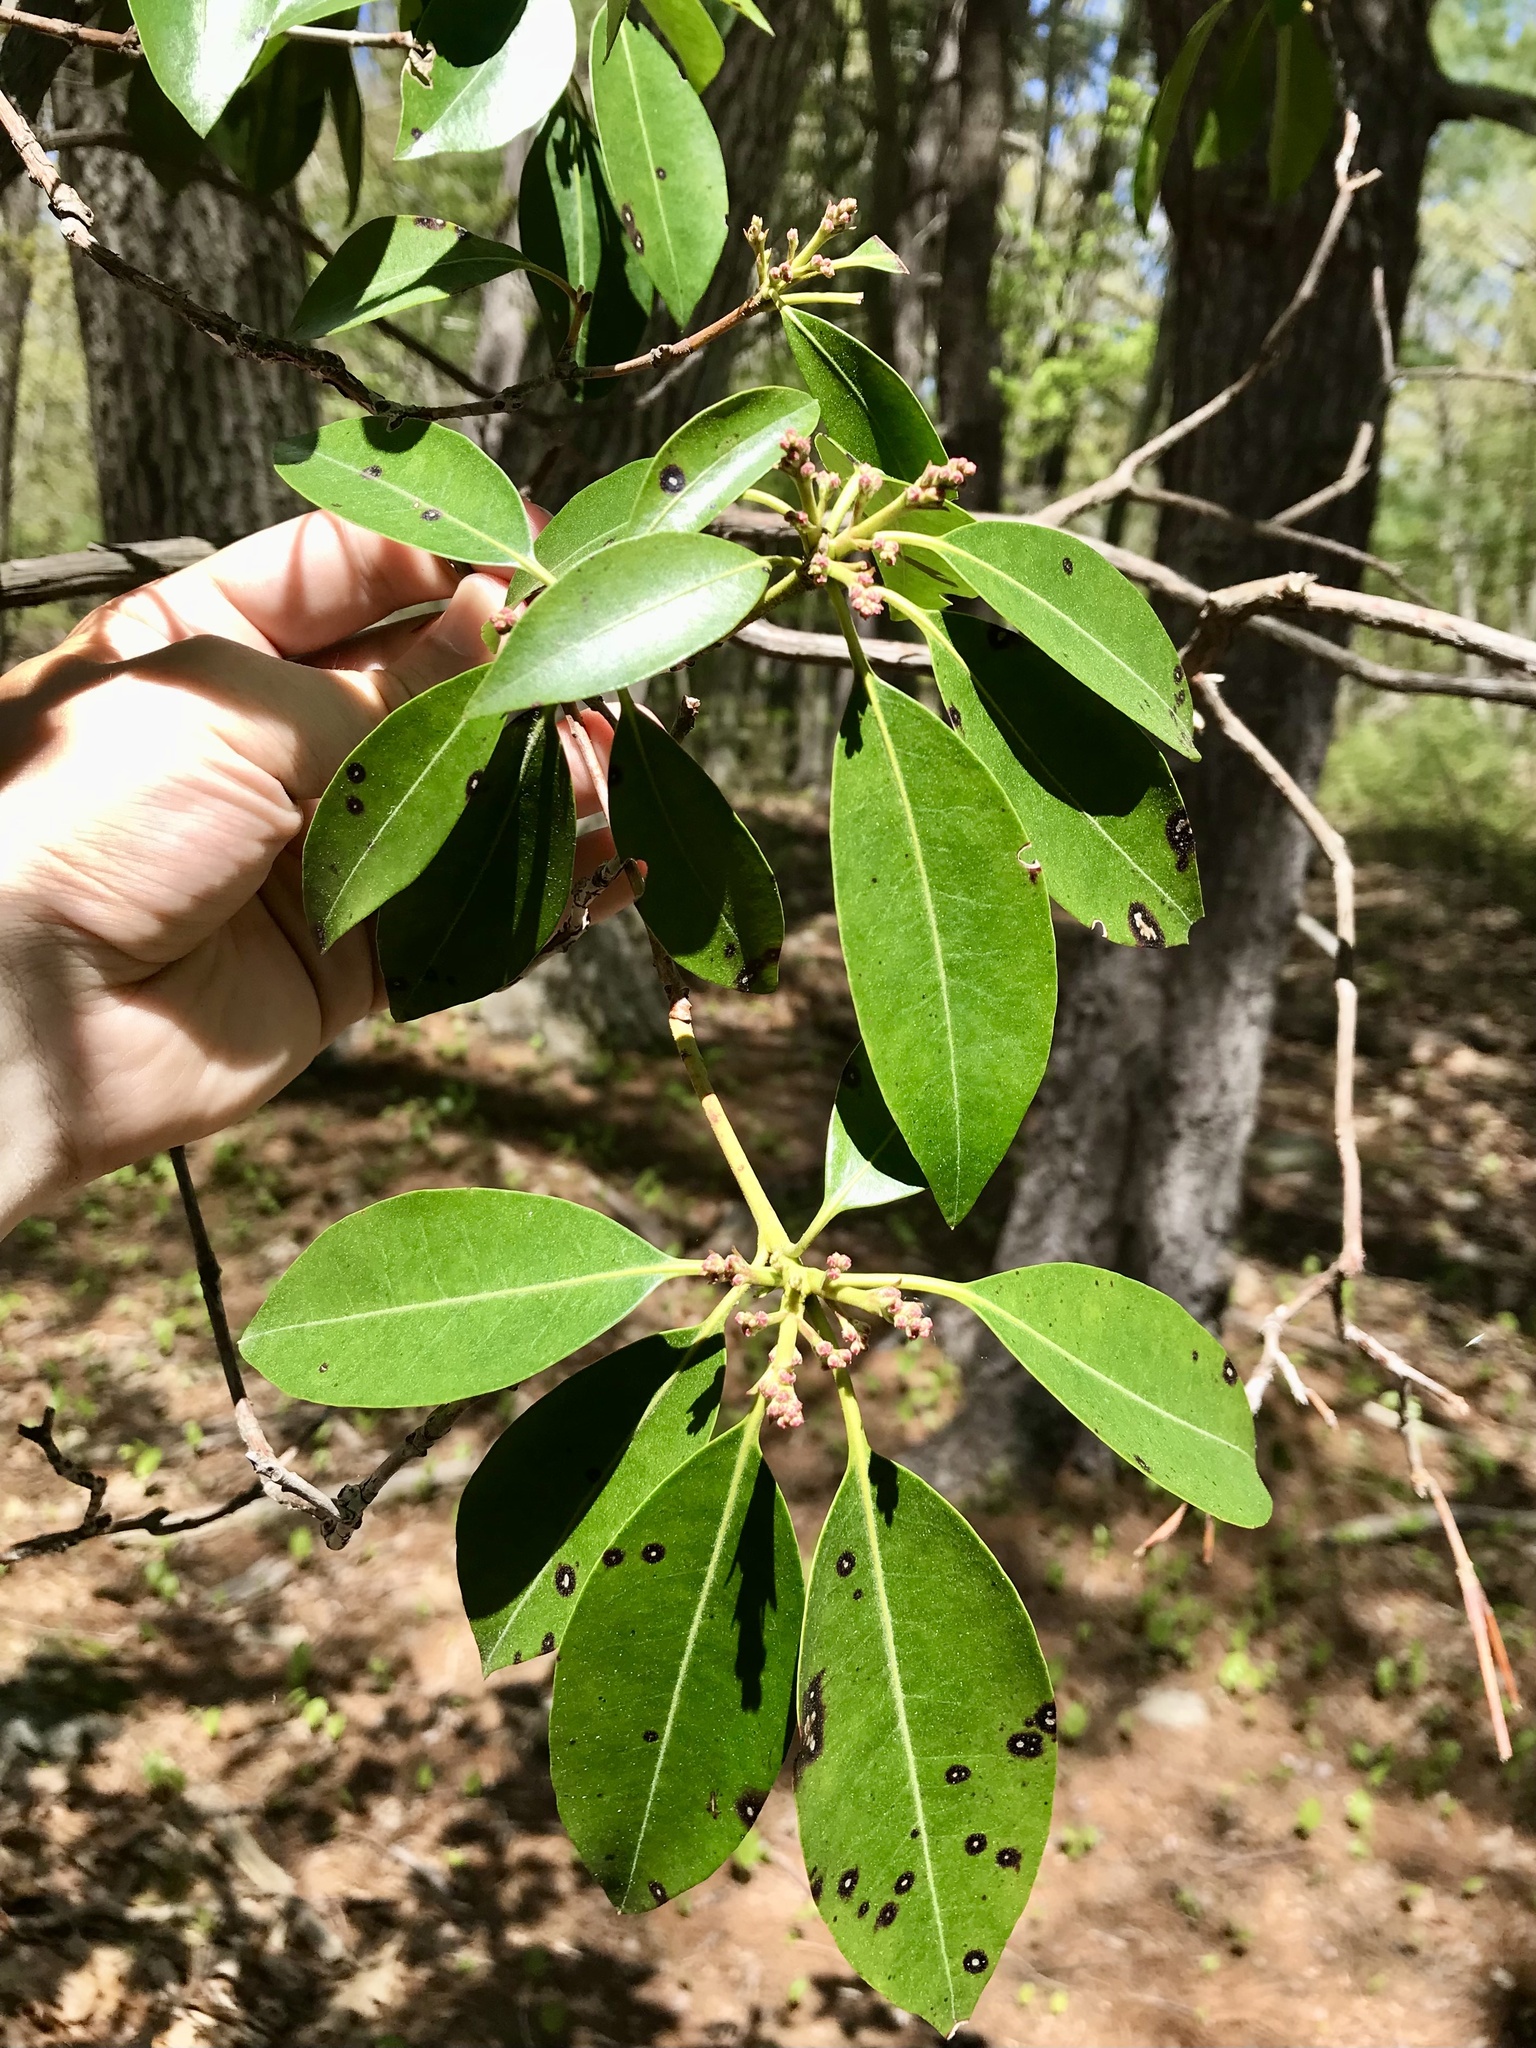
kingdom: Plantae
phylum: Tracheophyta
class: Magnoliopsida
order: Ericales
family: Ericaceae
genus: Kalmia
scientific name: Kalmia latifolia
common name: Mountain-laurel
